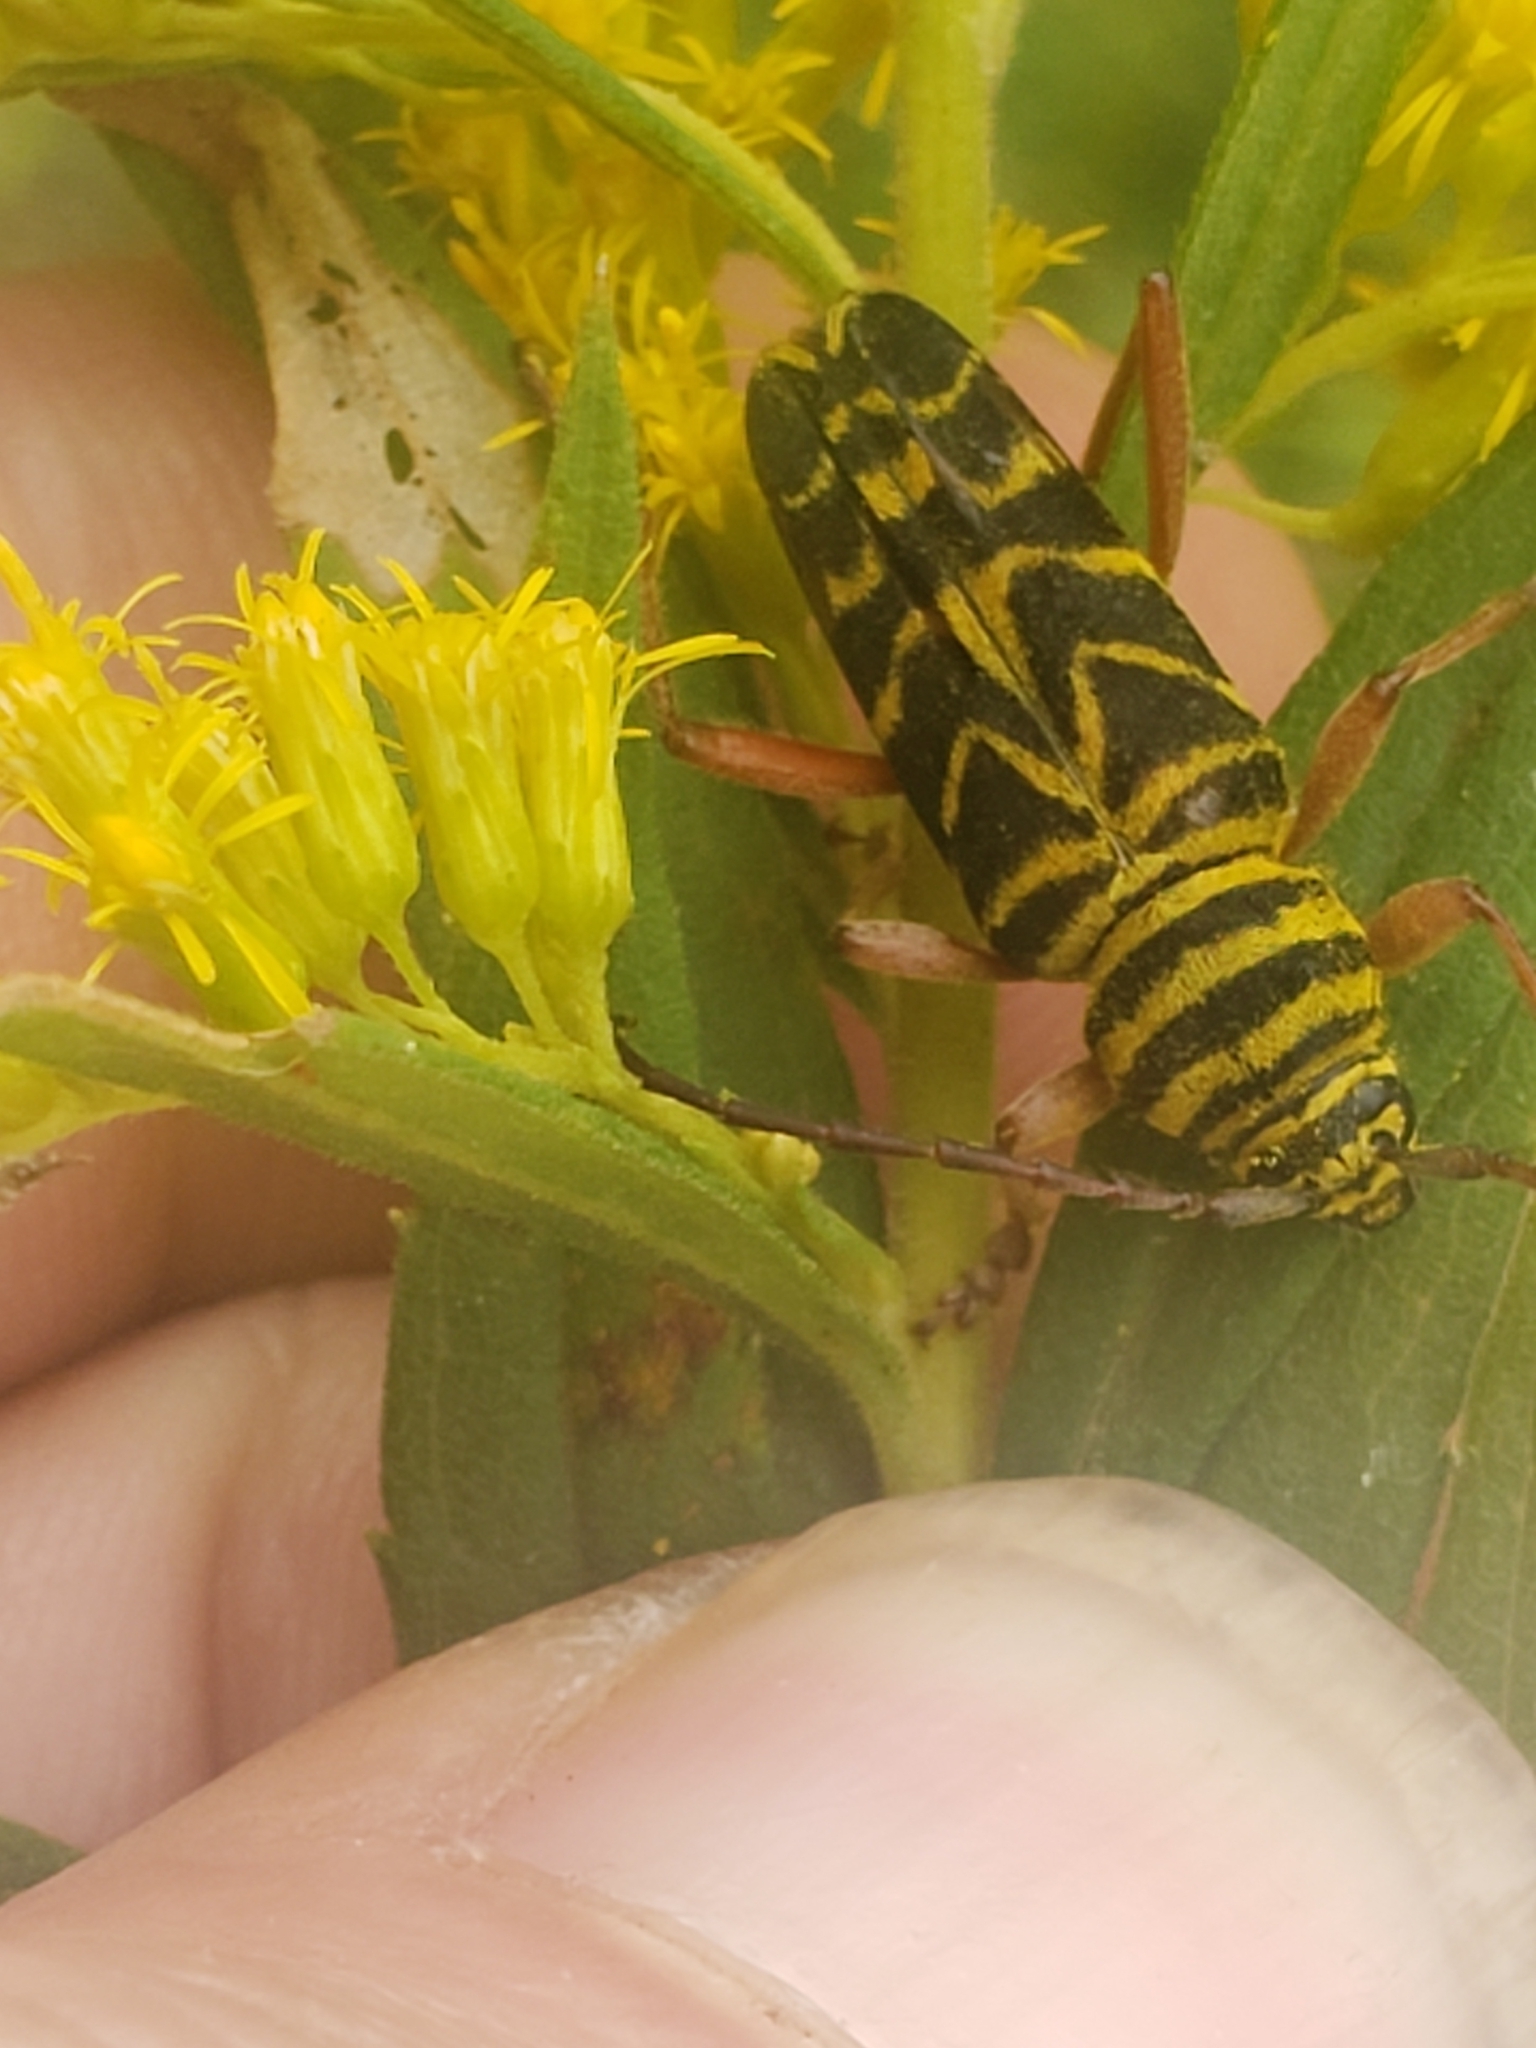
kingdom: Animalia
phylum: Arthropoda
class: Insecta
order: Coleoptera
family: Cerambycidae
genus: Megacyllene
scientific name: Megacyllene robiniae
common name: Locust borer
